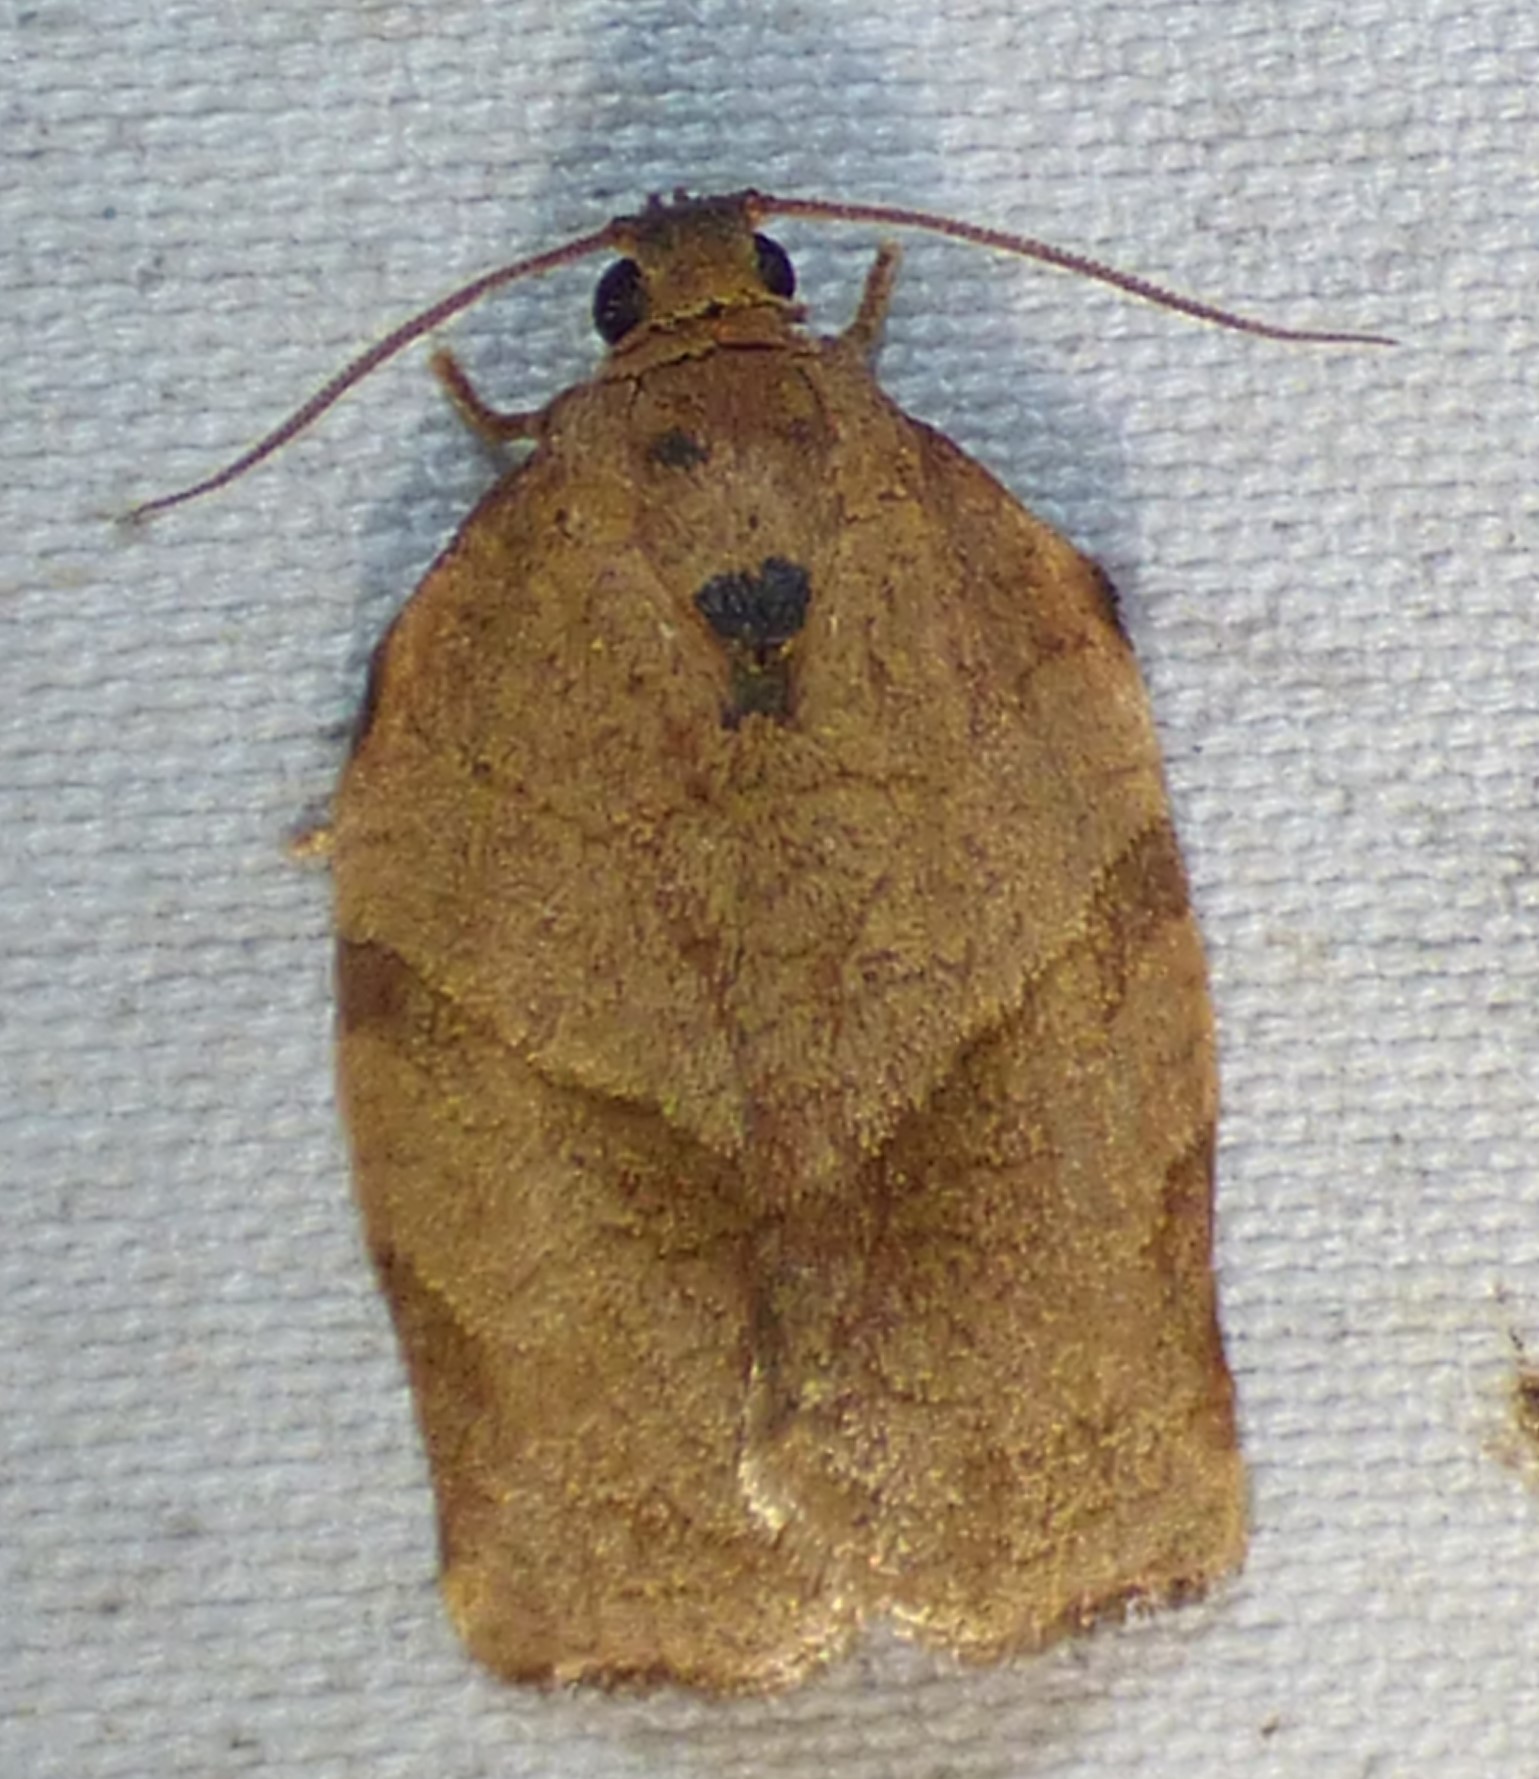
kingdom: Animalia
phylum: Arthropoda
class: Insecta
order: Lepidoptera
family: Tortricidae
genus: Choristoneura
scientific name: Choristoneura rosaceana
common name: Oblique-banded leafroller moth
